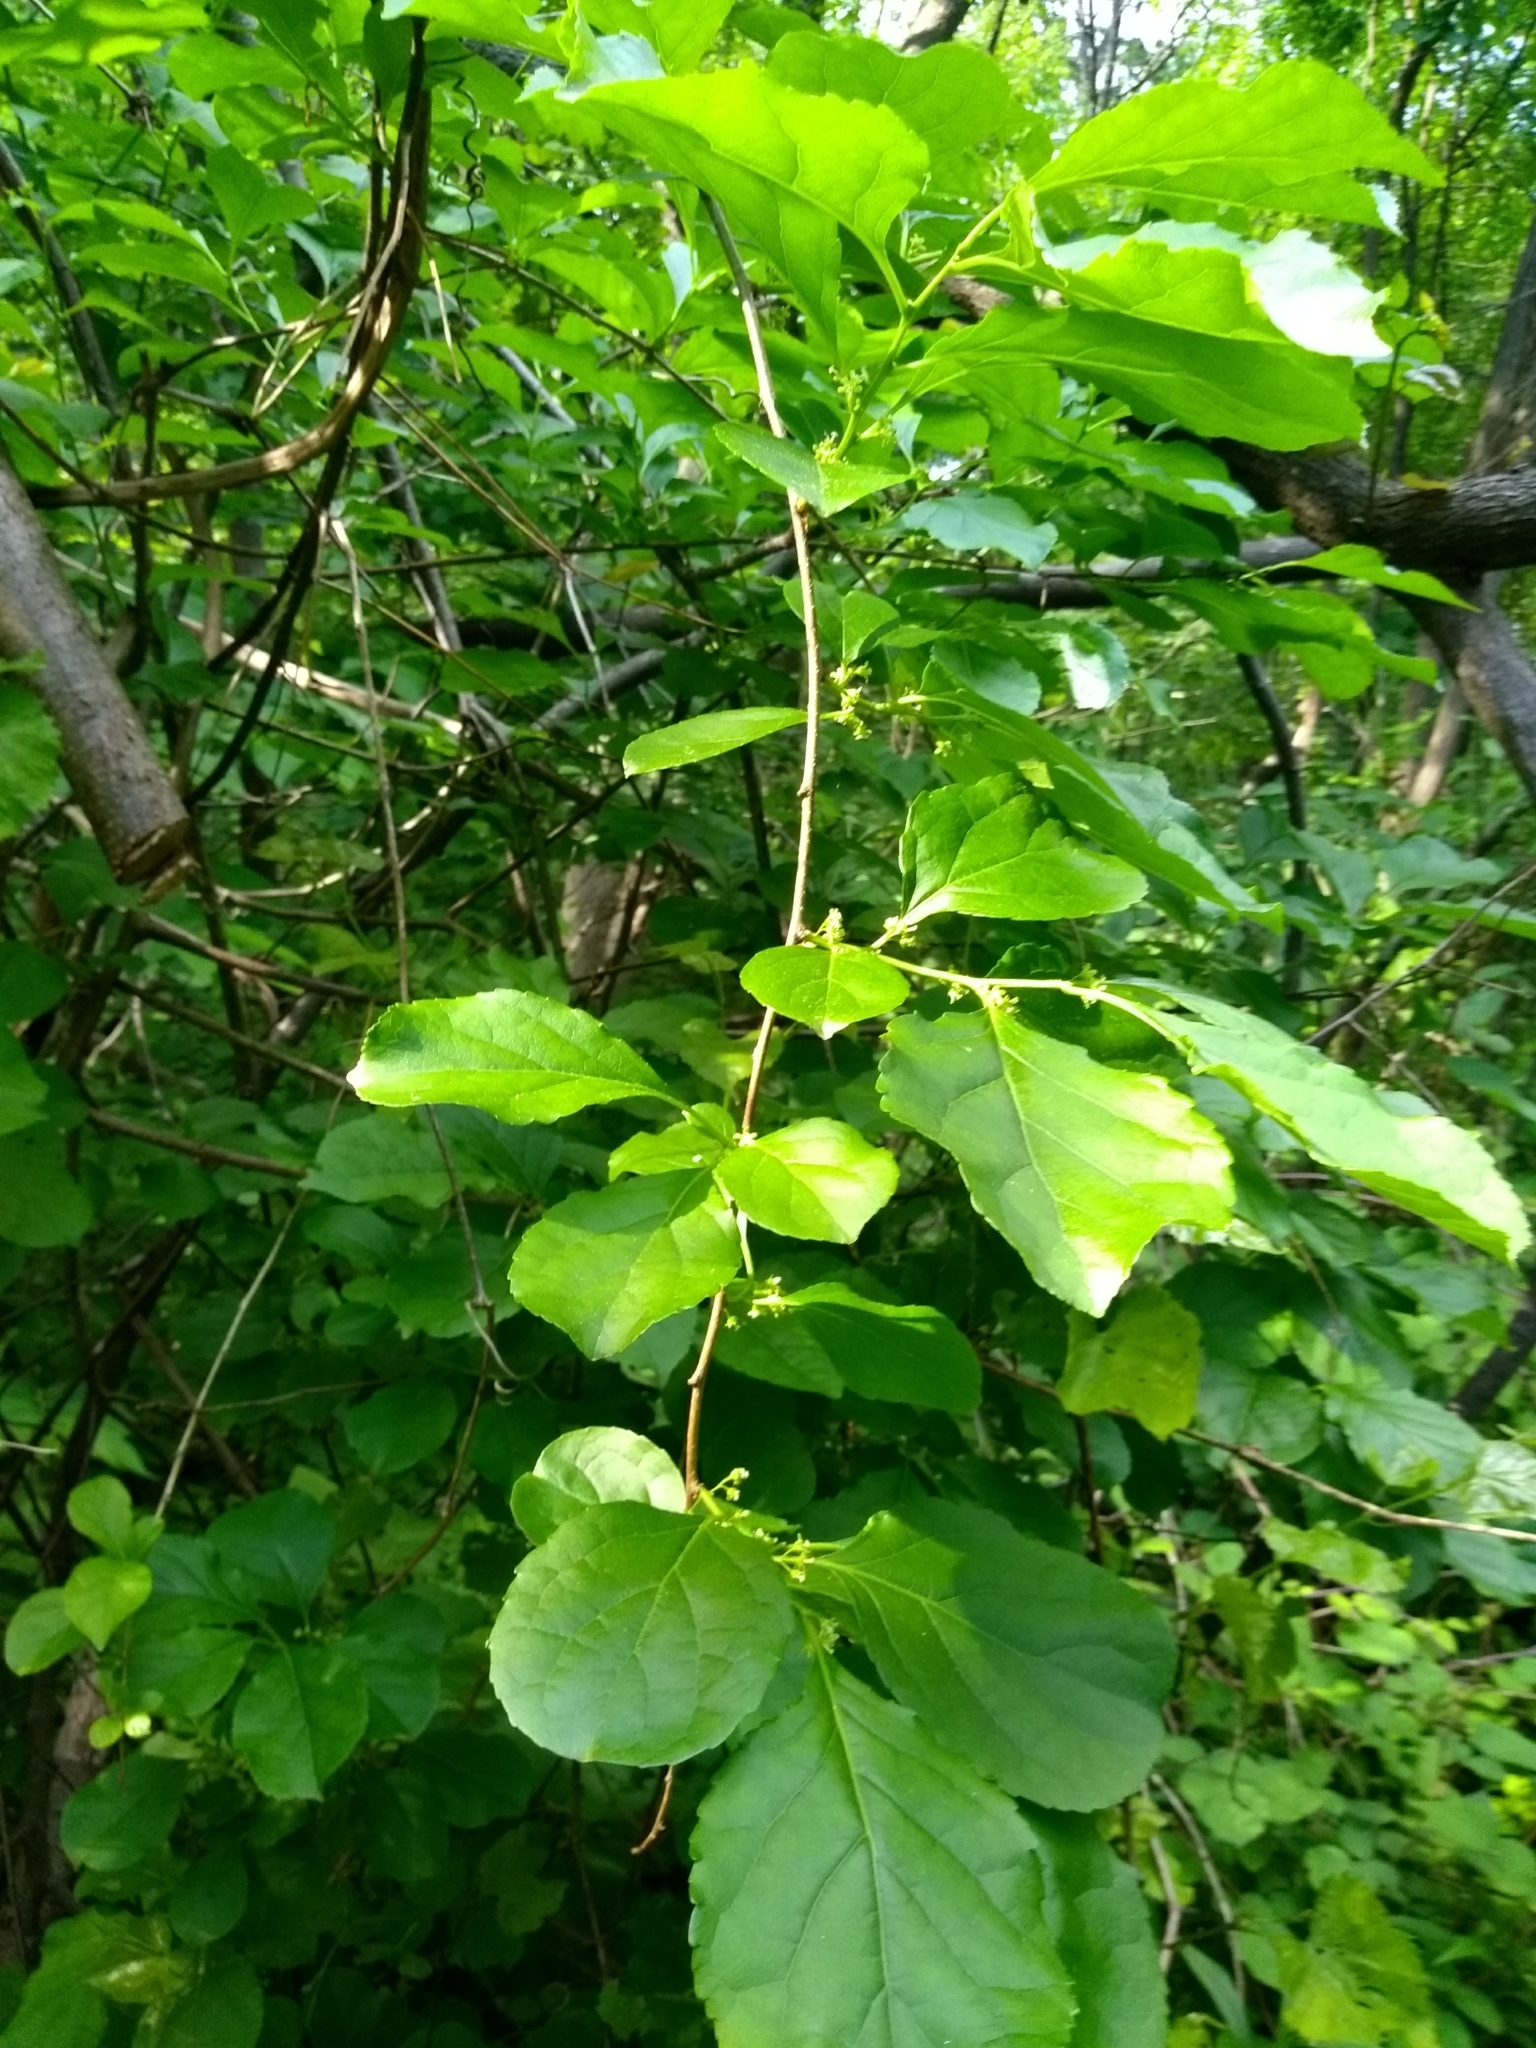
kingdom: Plantae
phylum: Tracheophyta
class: Magnoliopsida
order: Celastrales
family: Celastraceae
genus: Celastrus
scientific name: Celastrus orbiculatus
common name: Oriental bittersweet
